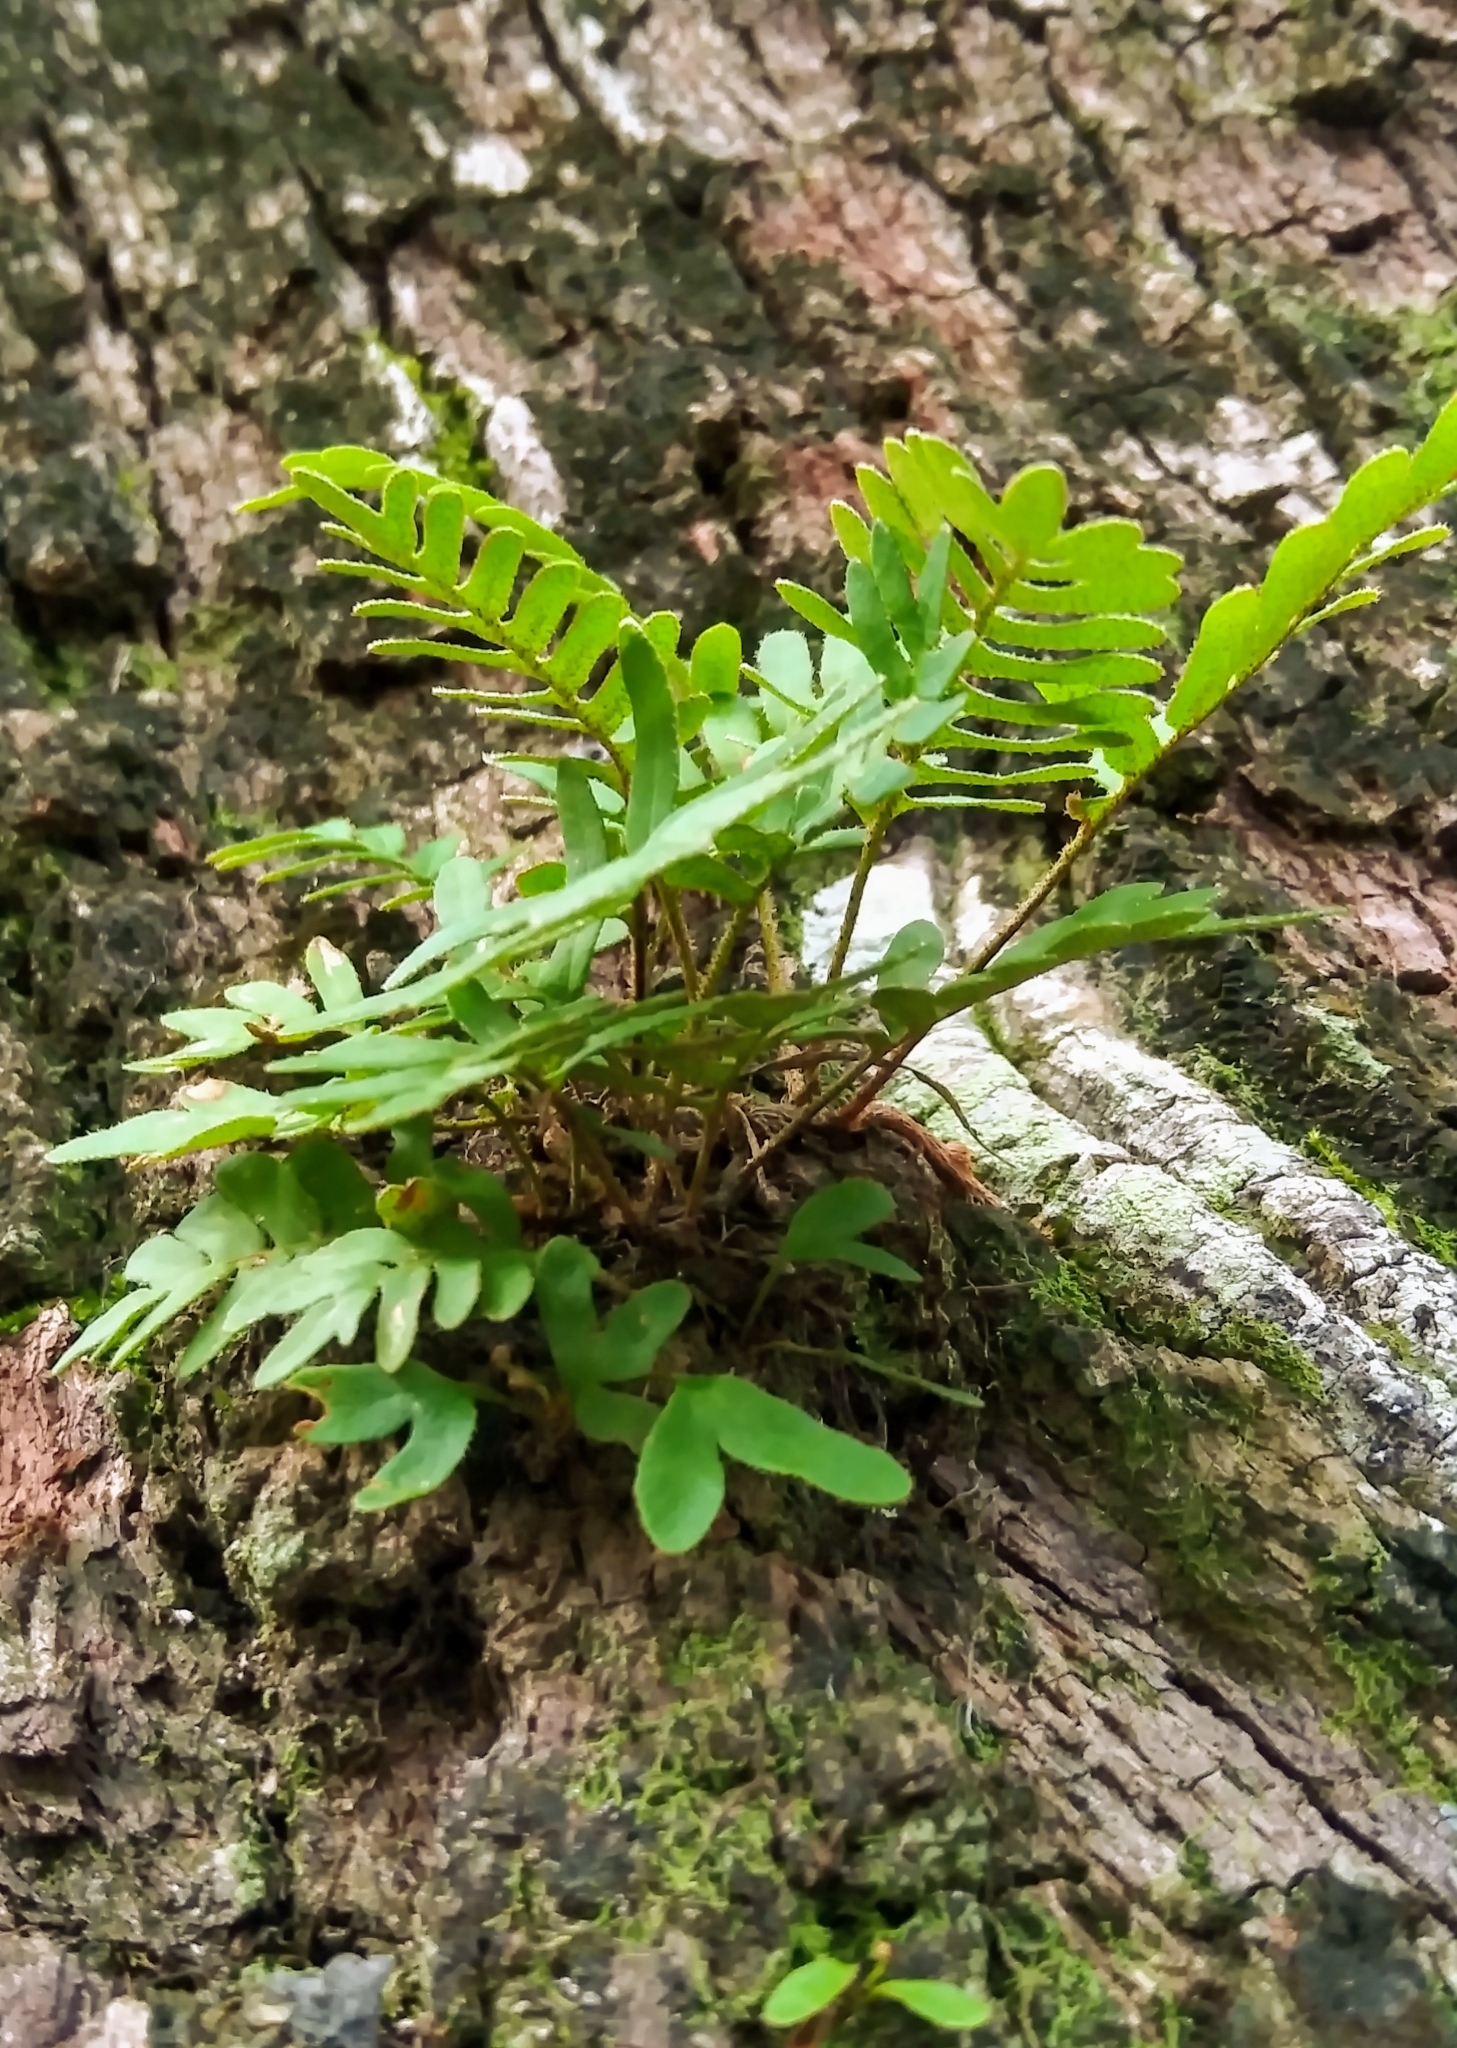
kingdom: Plantae
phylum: Tracheophyta
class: Polypodiopsida
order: Polypodiales
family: Polypodiaceae
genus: Pleopeltis
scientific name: Pleopeltis michauxiana
